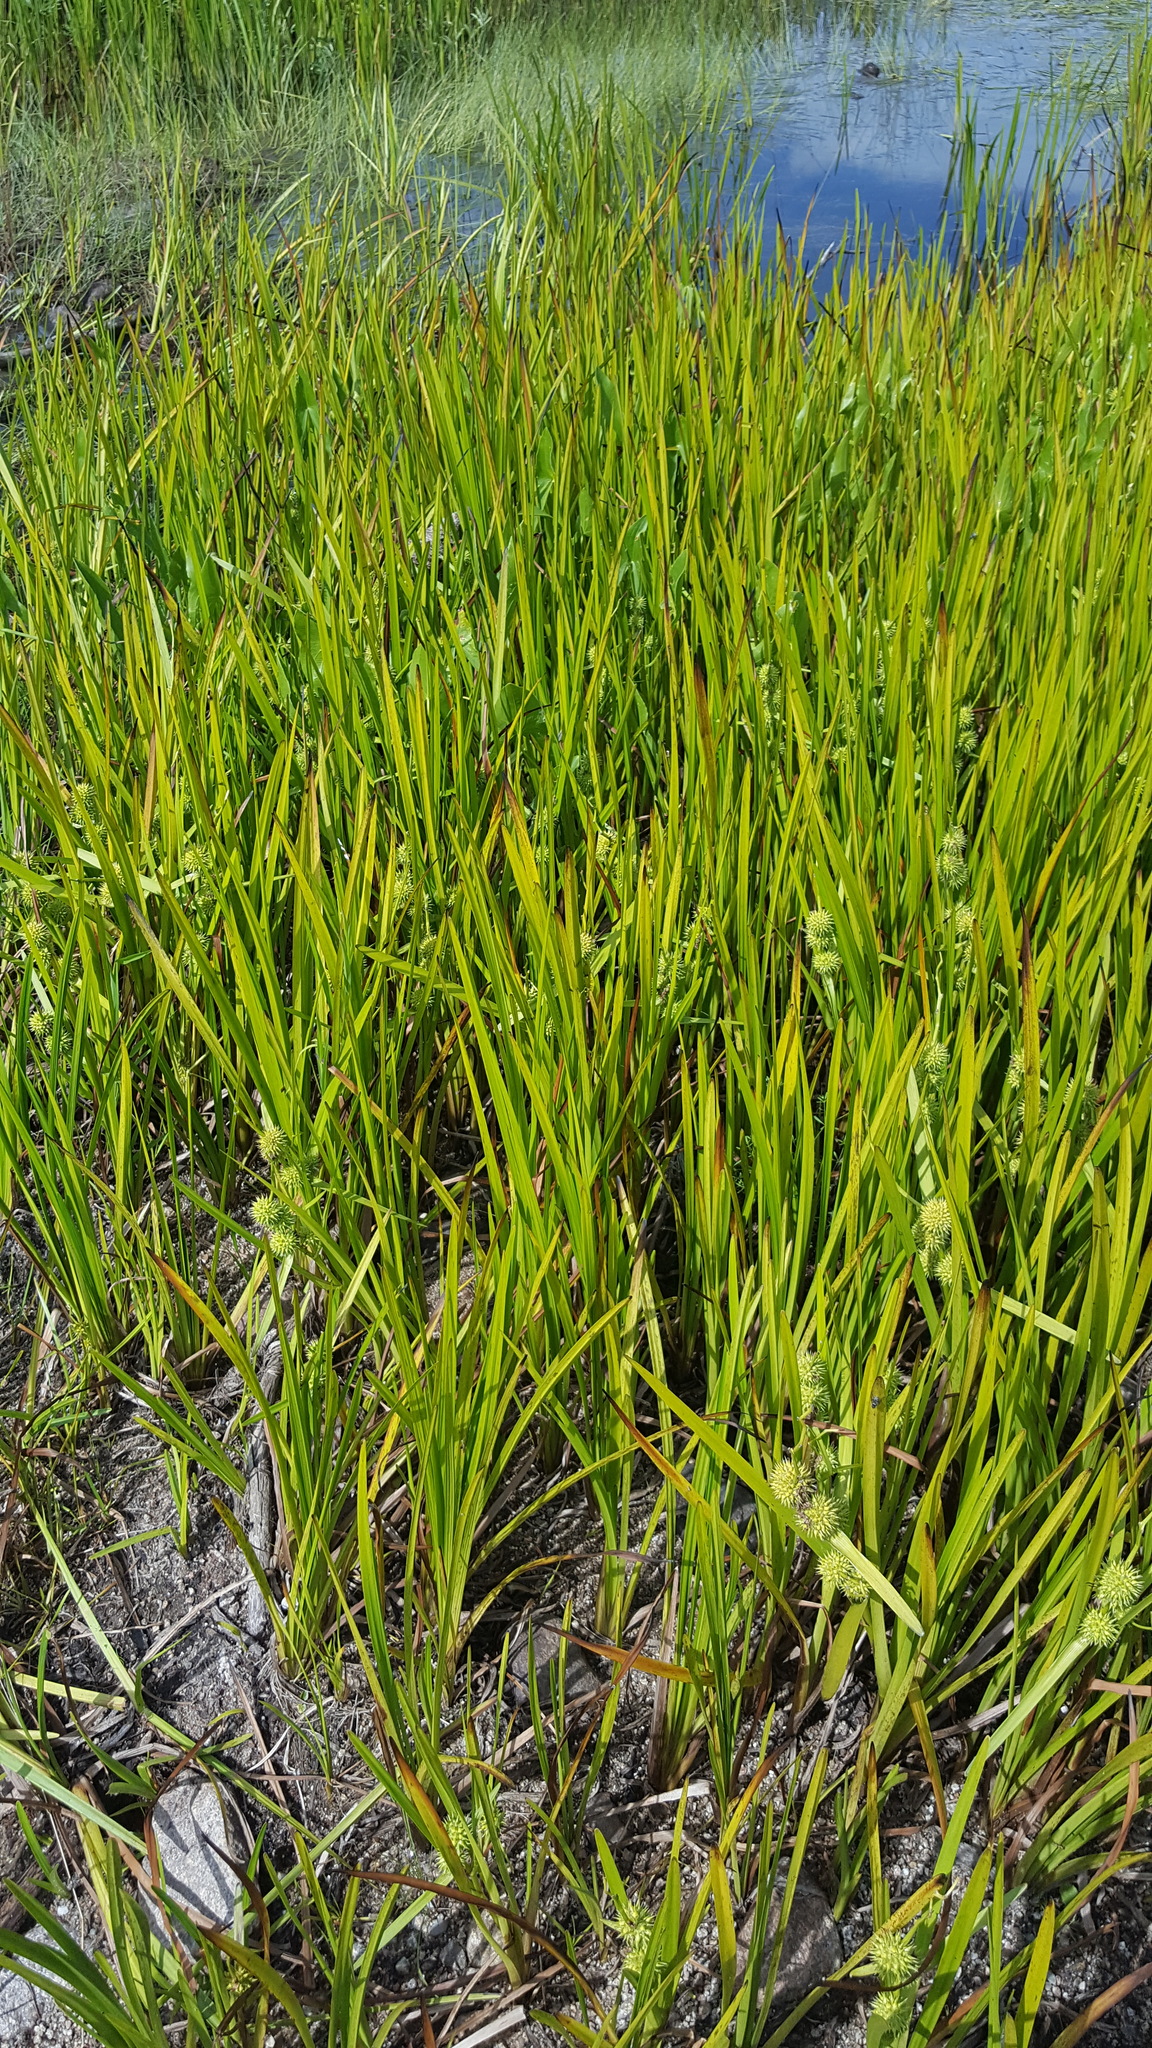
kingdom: Plantae
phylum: Tracheophyta
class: Liliopsida
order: Poales
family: Typhaceae
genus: Sparganium
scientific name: Sparganium americanum
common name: American burreed
